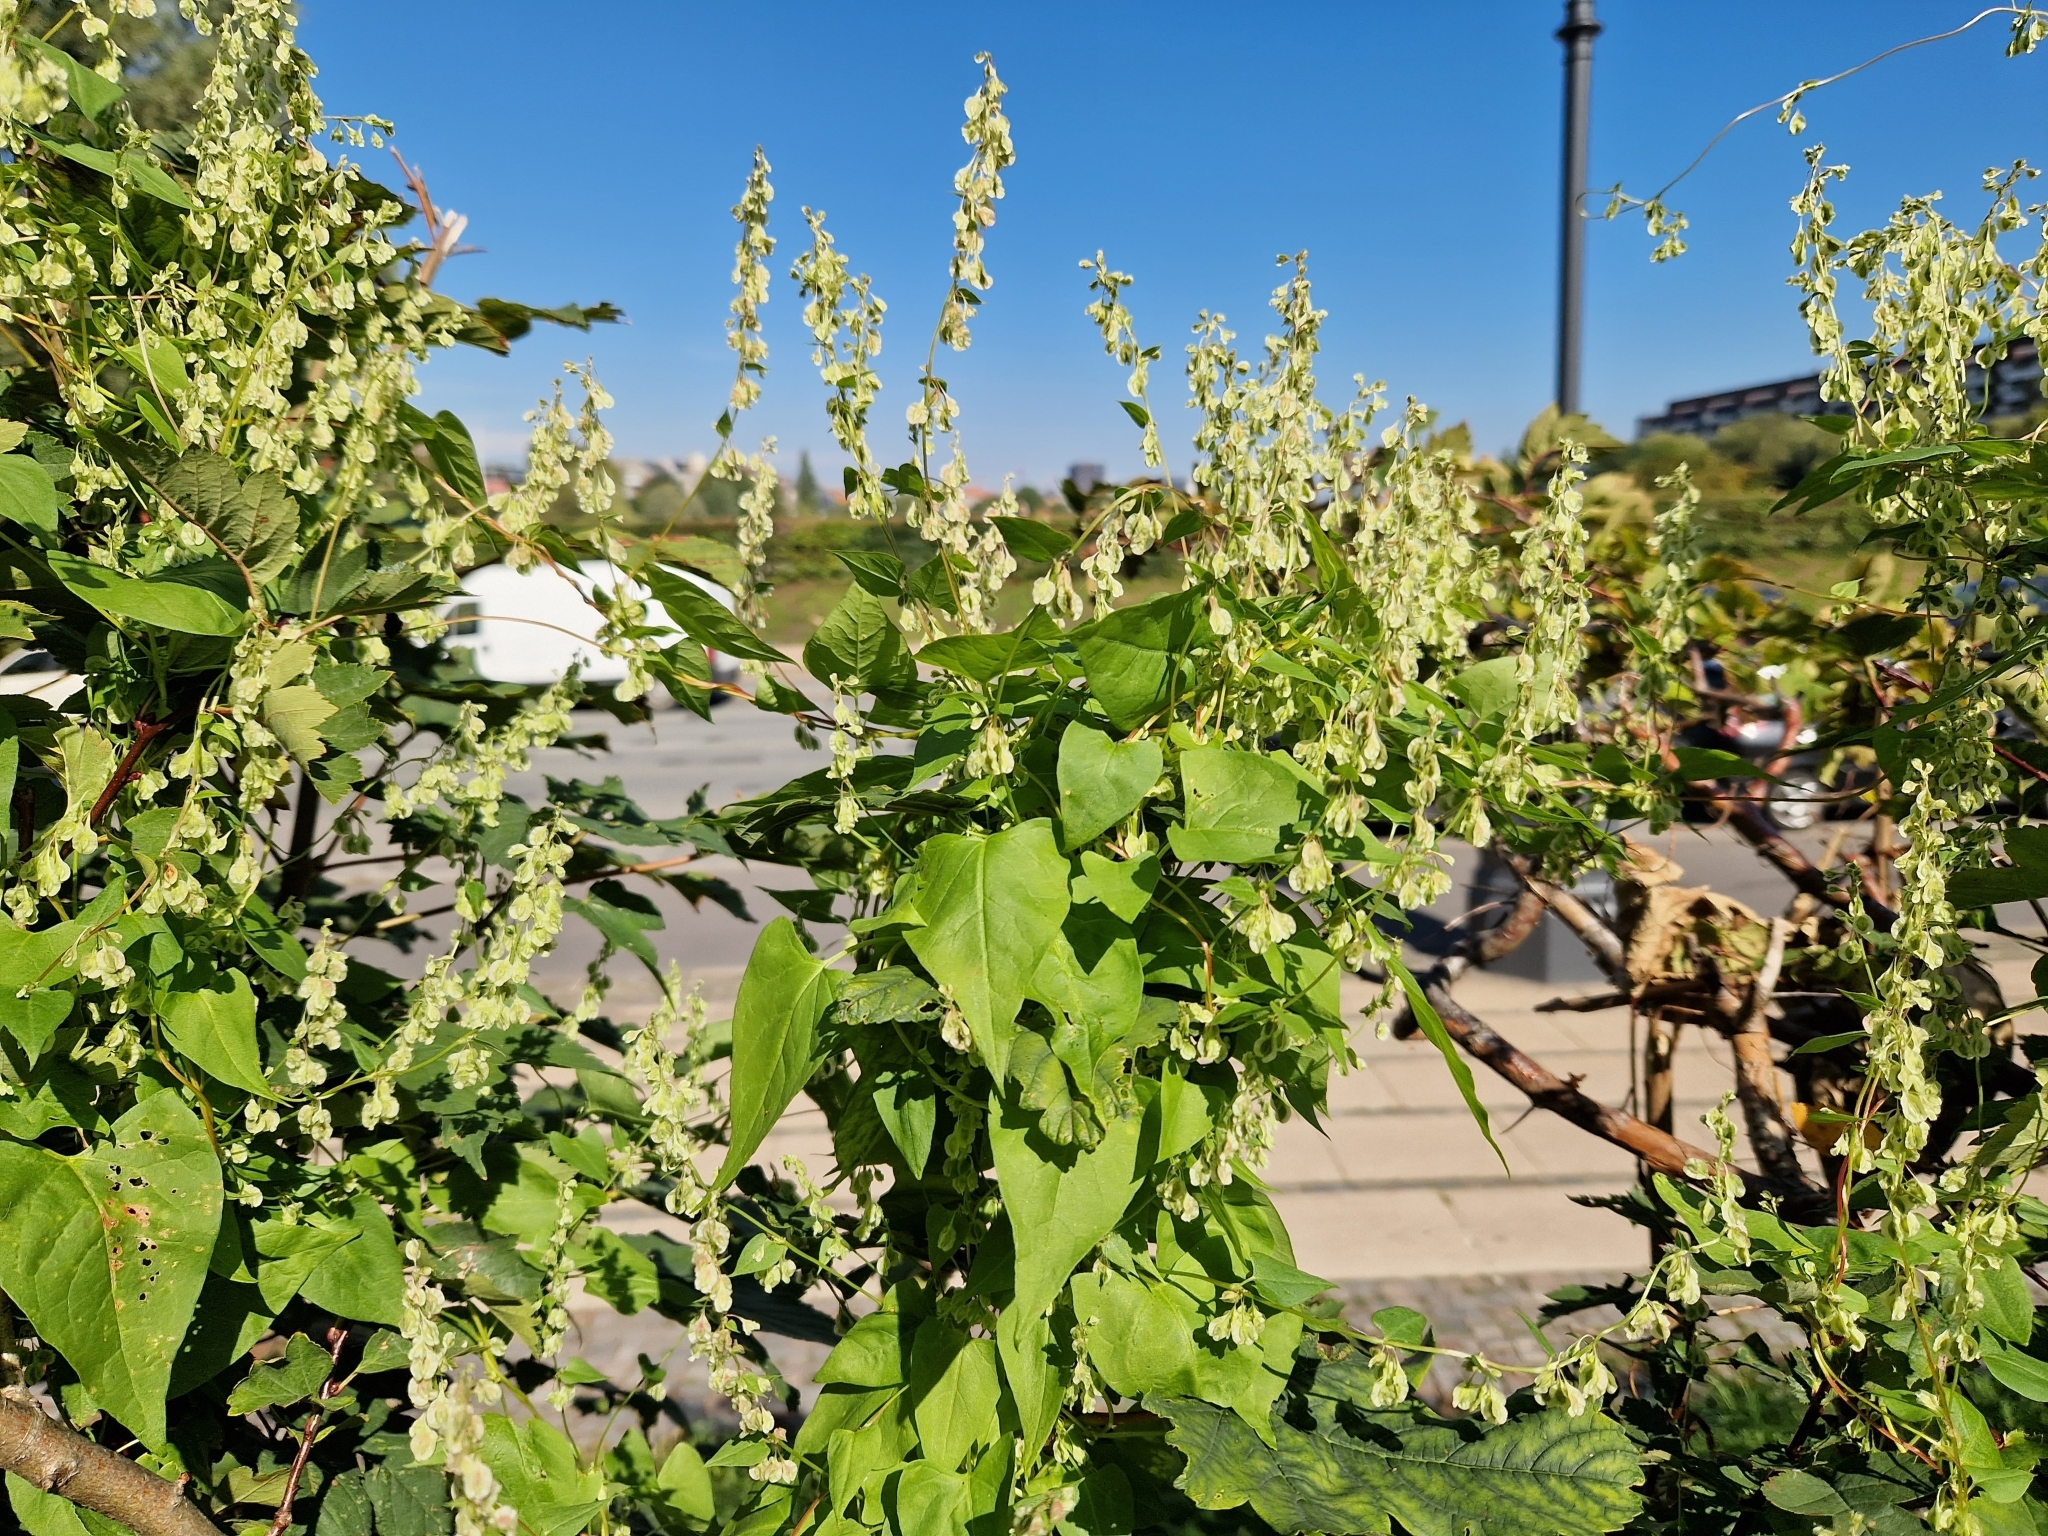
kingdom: Plantae
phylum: Tracheophyta
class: Magnoliopsida
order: Caryophyllales
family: Polygonaceae
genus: Fallopia
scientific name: Fallopia dumetorum
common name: Copse-bindweed
